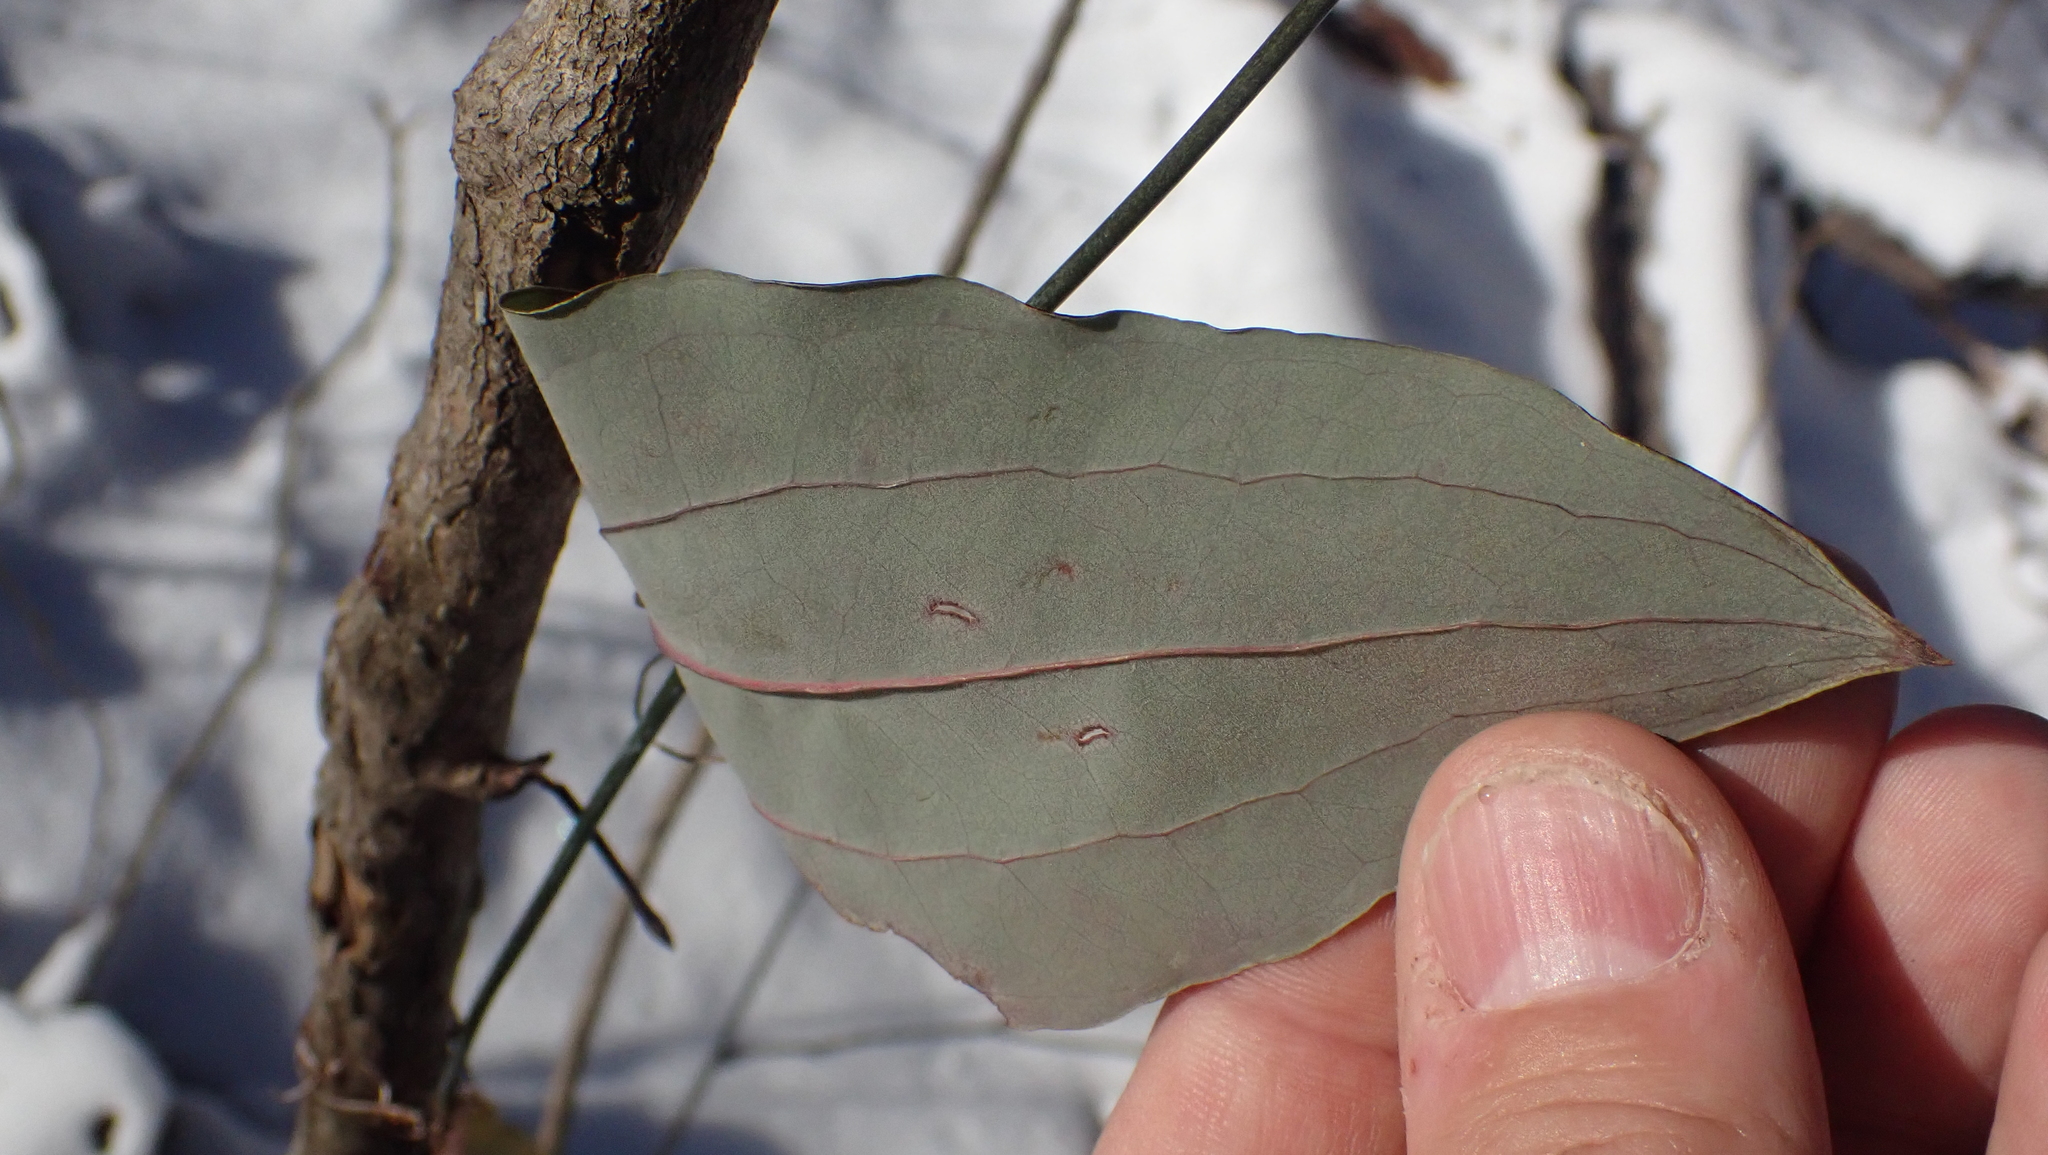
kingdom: Plantae
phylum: Tracheophyta
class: Liliopsida
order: Liliales
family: Smilacaceae
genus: Smilax
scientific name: Smilax glauca
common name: Cat greenbrier
